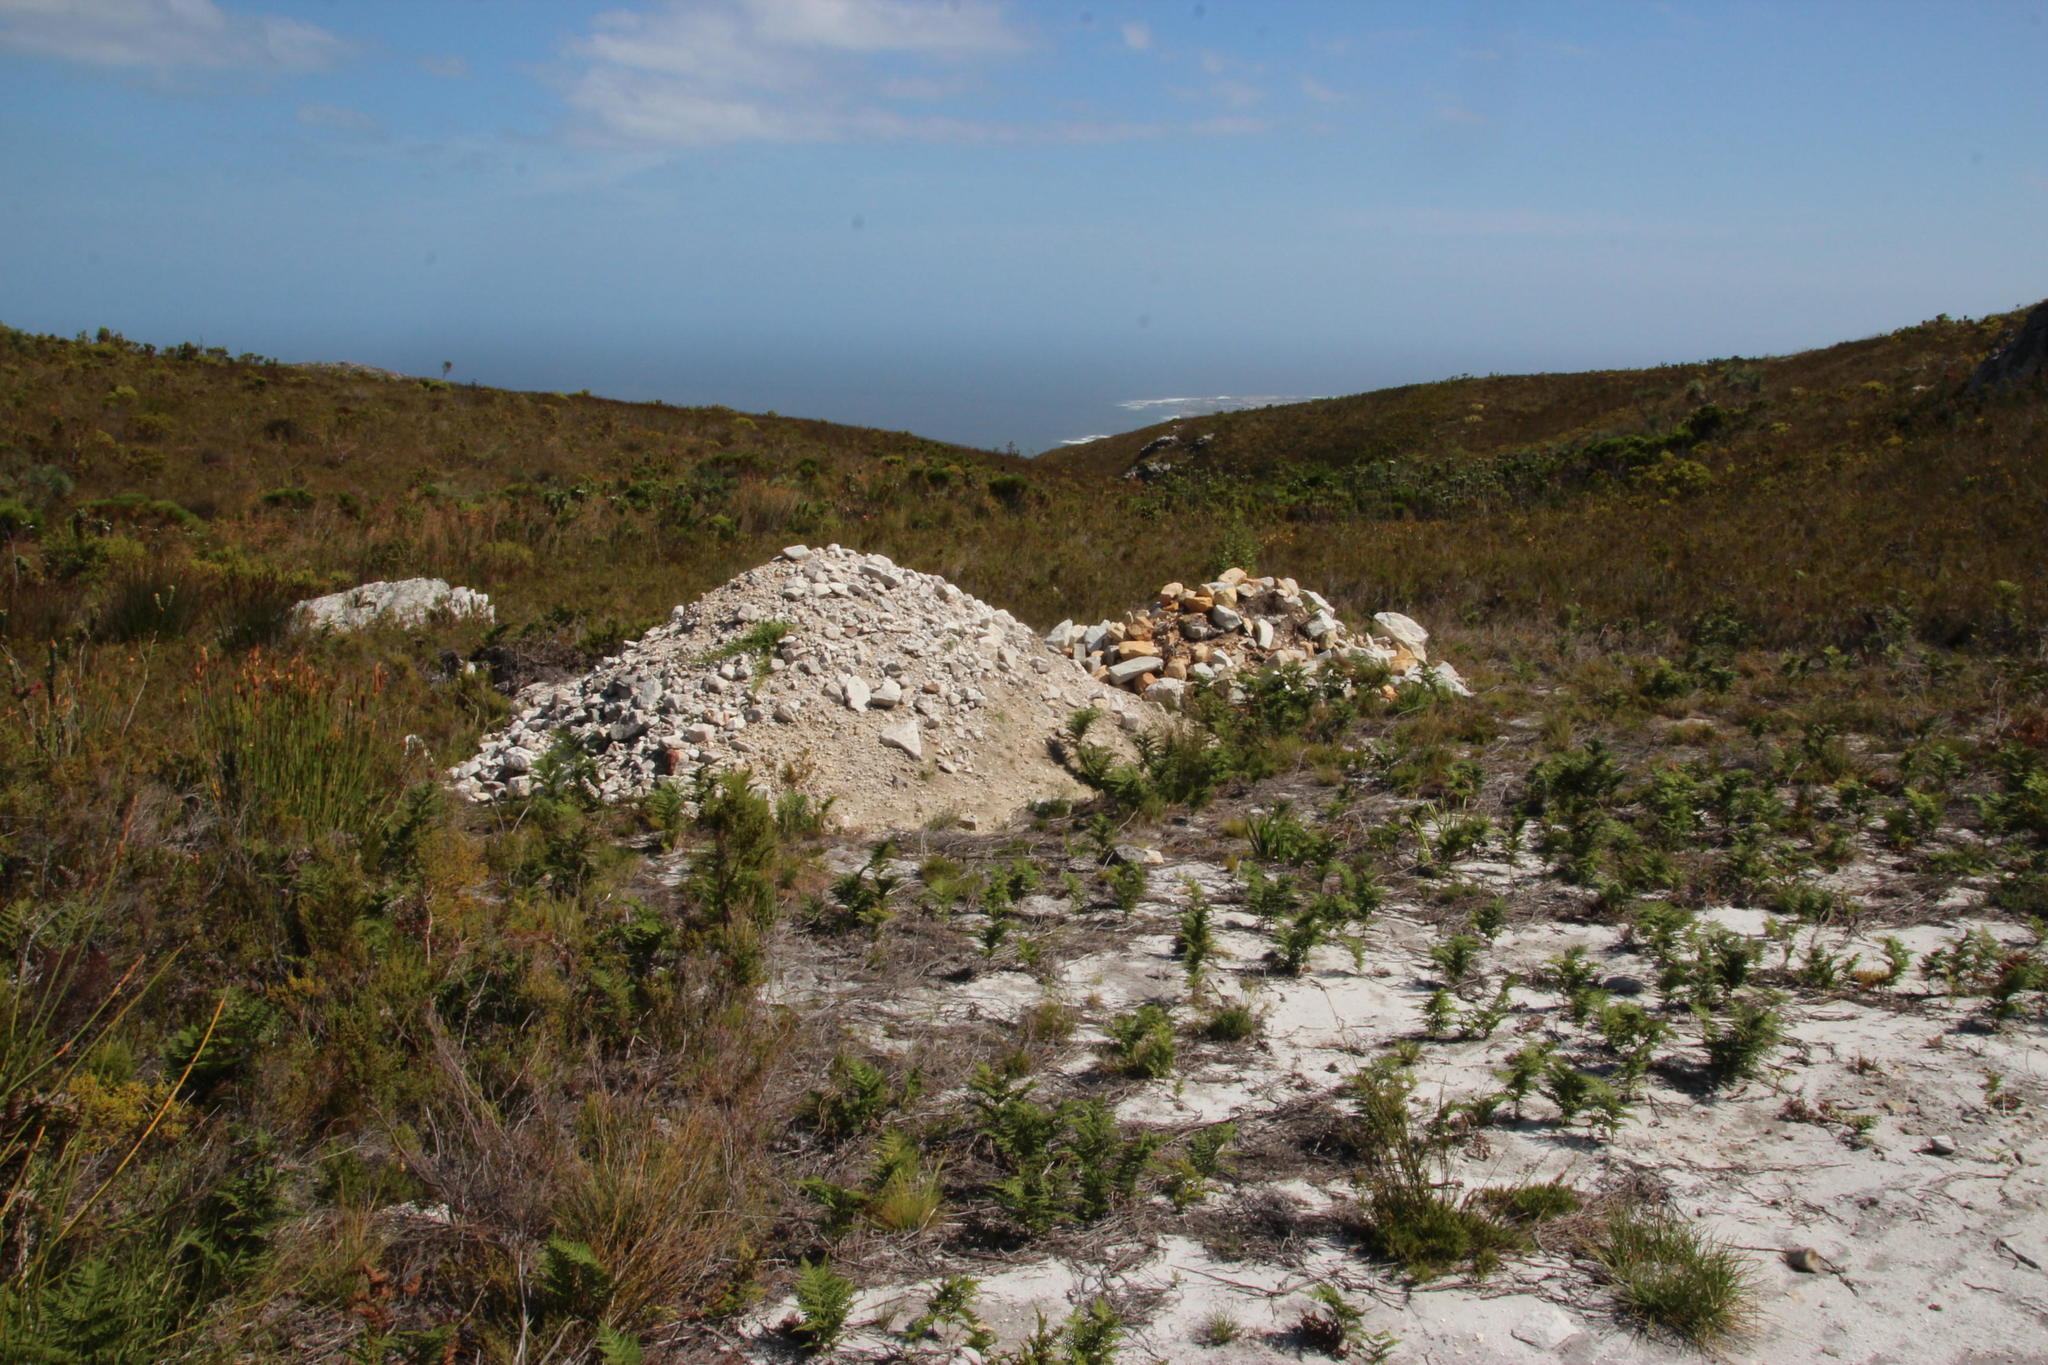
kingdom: Plantae
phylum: Tracheophyta
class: Liliopsida
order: Poales
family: Poaceae
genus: Cenchrus
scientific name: Cenchrus clandestinus
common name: Kikuyugrass
